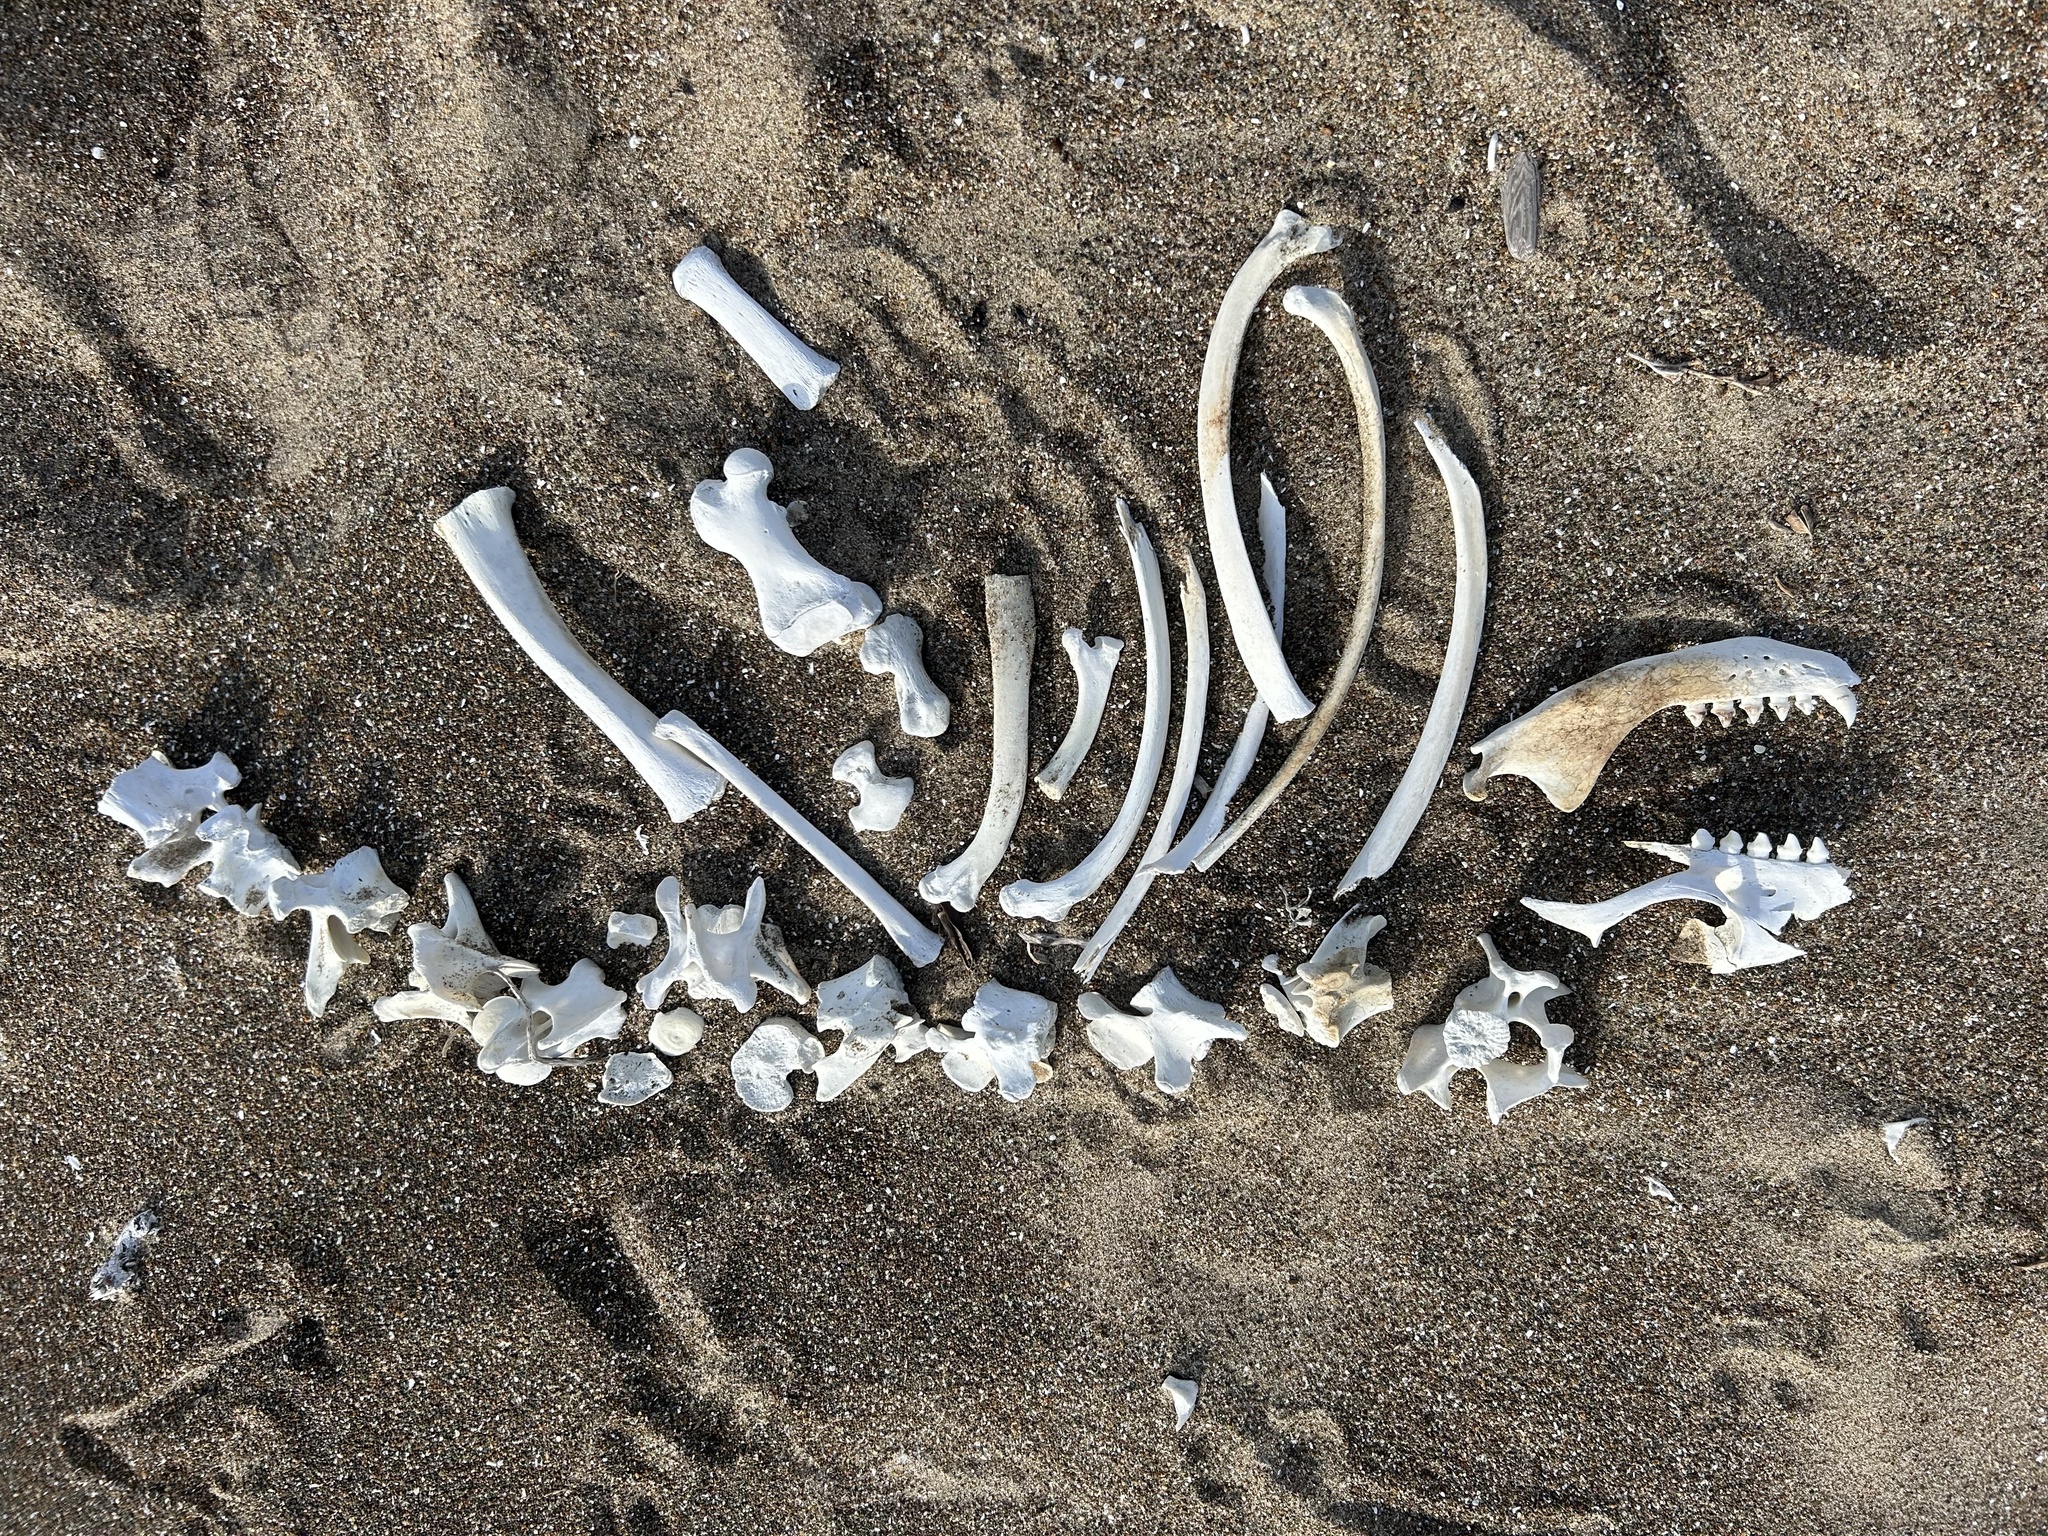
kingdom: Animalia
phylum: Chordata
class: Mammalia
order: Carnivora
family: Otariidae
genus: Zalophus
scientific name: Zalophus californianus
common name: California sea lion
